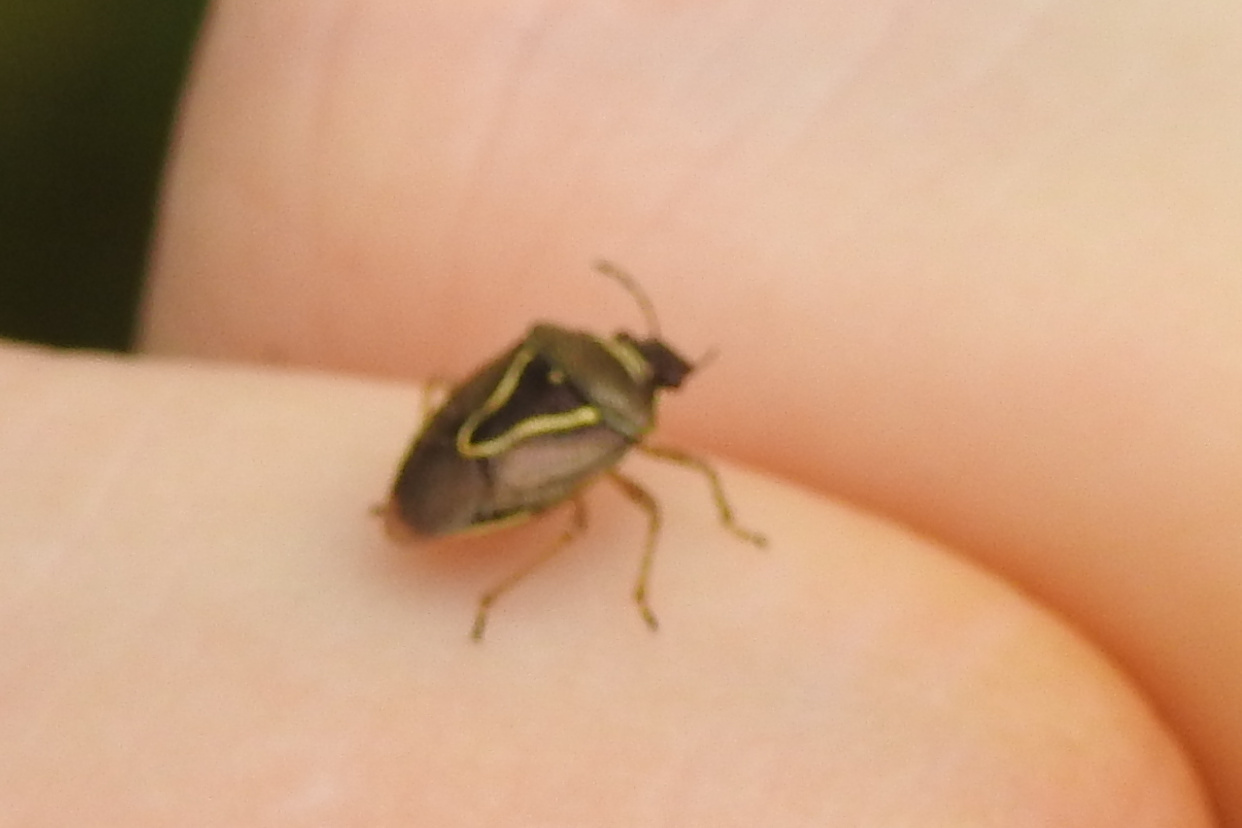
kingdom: Animalia
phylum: Arthropoda
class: Insecta
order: Hemiptera
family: Pentatomidae
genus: Mormidea
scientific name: Mormidea lugens
